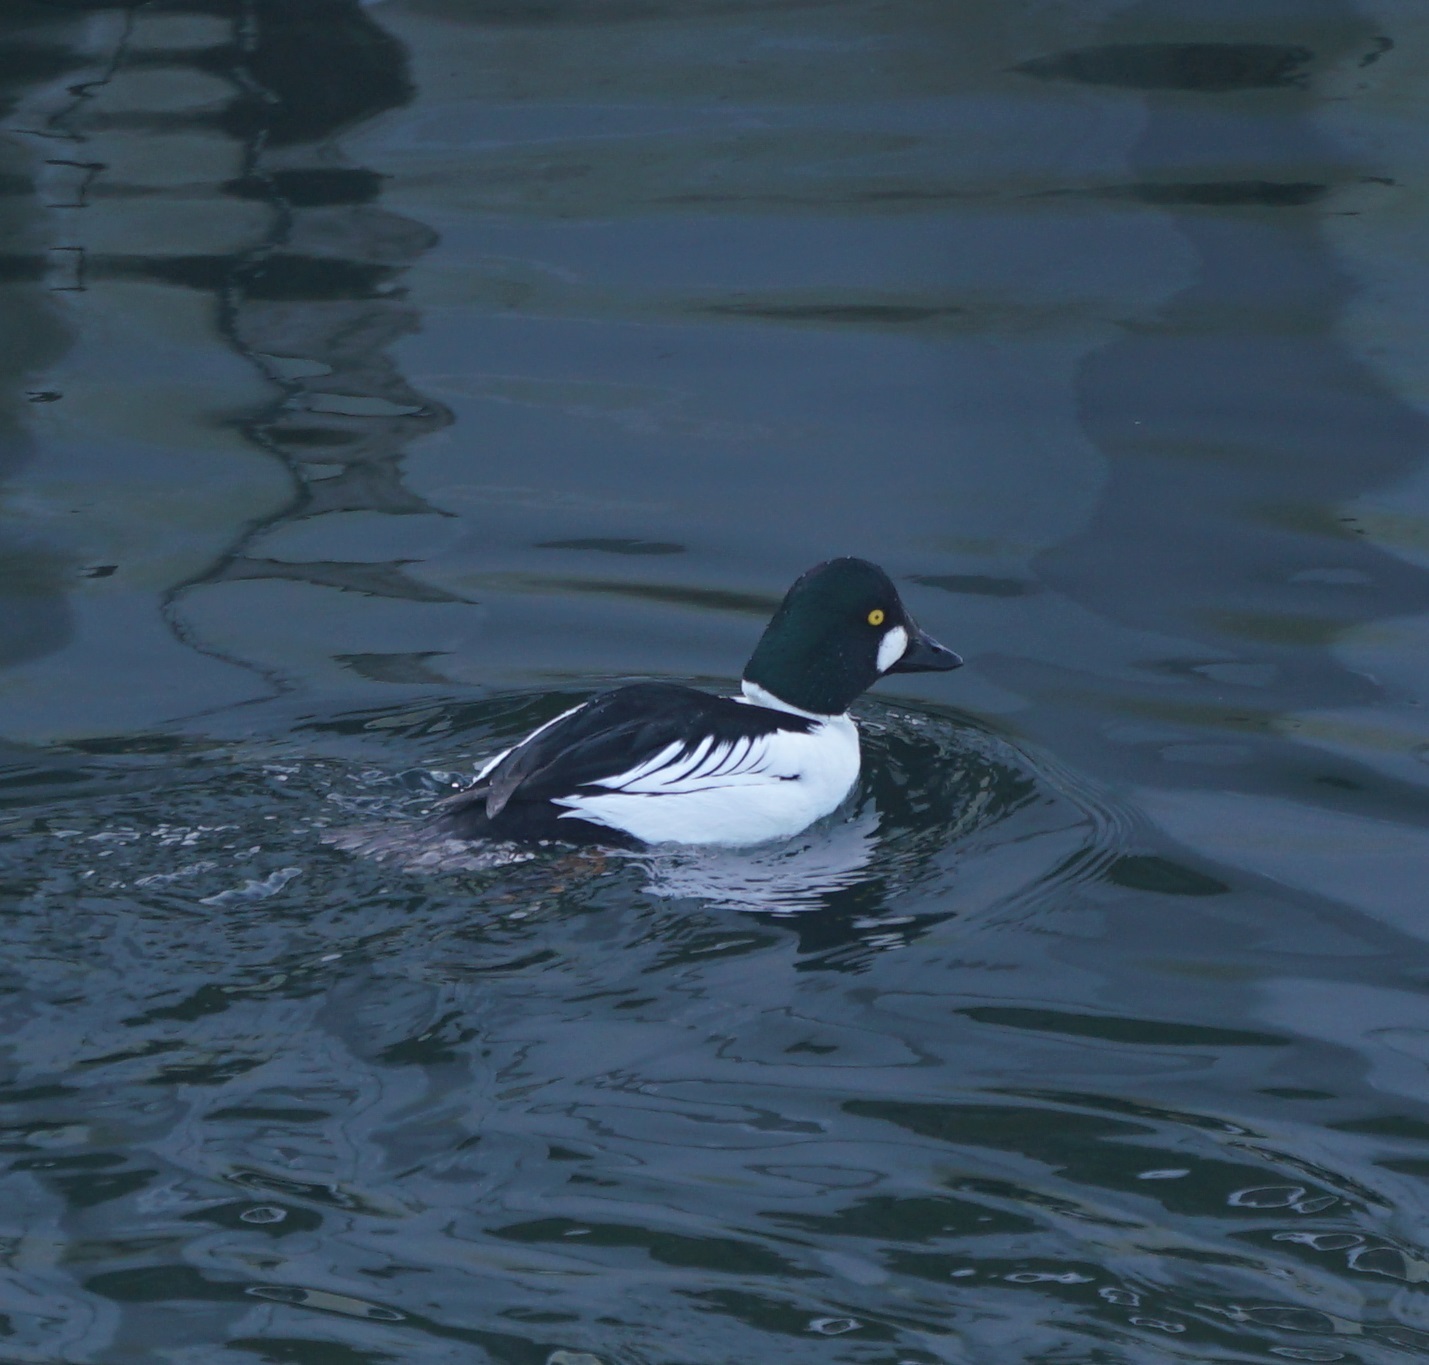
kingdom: Animalia
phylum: Chordata
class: Aves
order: Anseriformes
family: Anatidae
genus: Bucephala
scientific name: Bucephala clangula
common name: Common goldeneye
